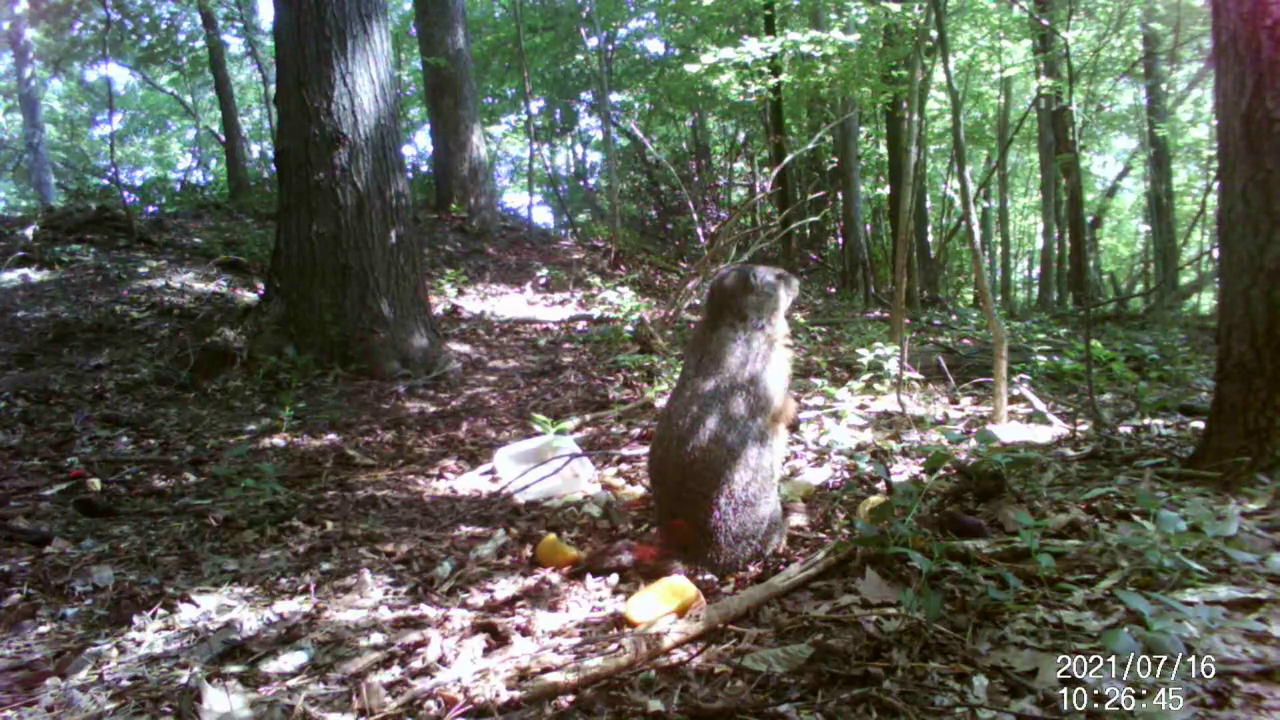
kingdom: Animalia
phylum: Chordata
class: Mammalia
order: Rodentia
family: Sciuridae
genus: Marmota
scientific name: Marmota monax
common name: Groundhog
